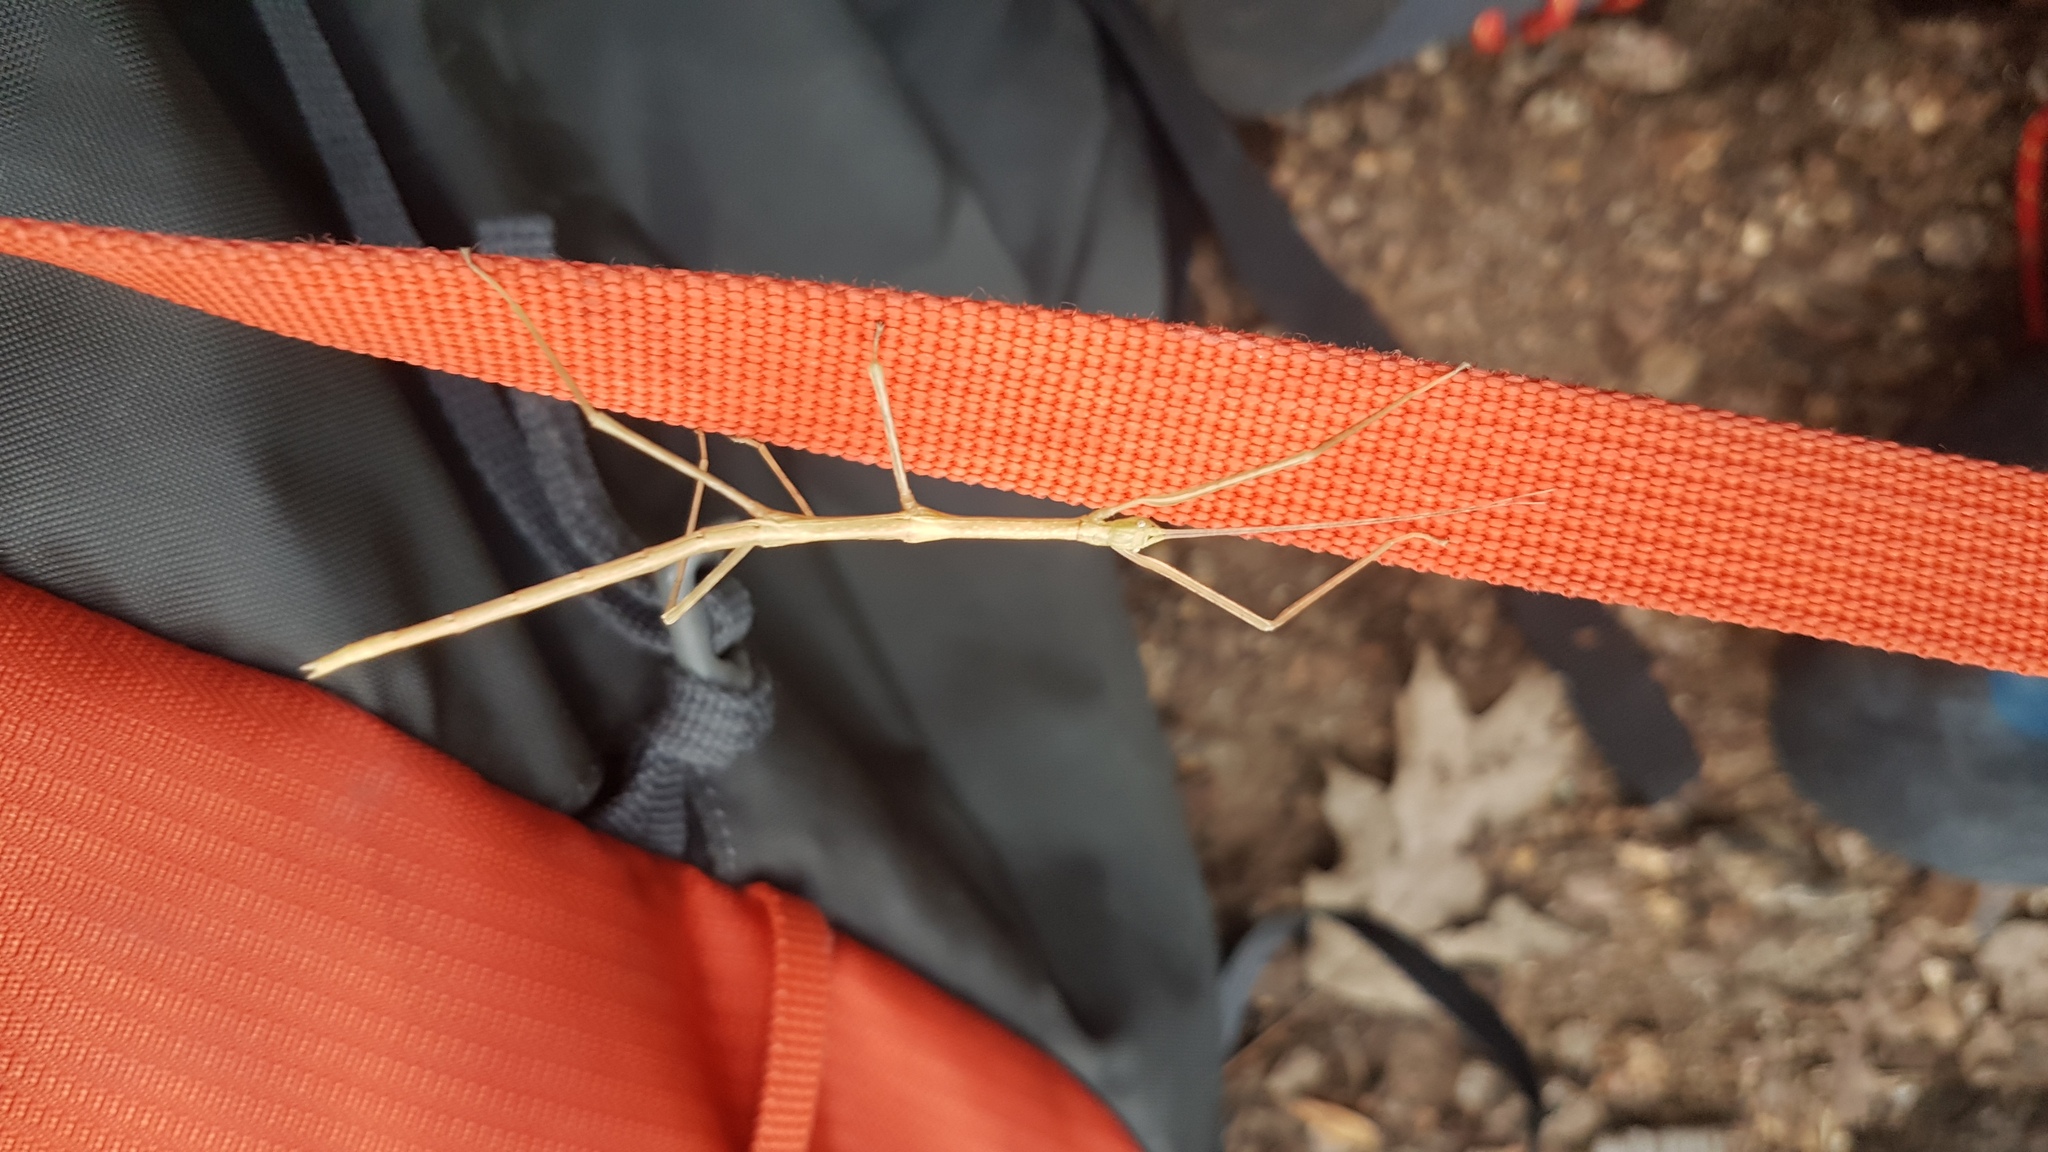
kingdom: Animalia
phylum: Arthropoda
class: Insecta
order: Phasmida
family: Diapheromeridae
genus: Diapheromera
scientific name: Diapheromera femorata
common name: Common american walkingstick
